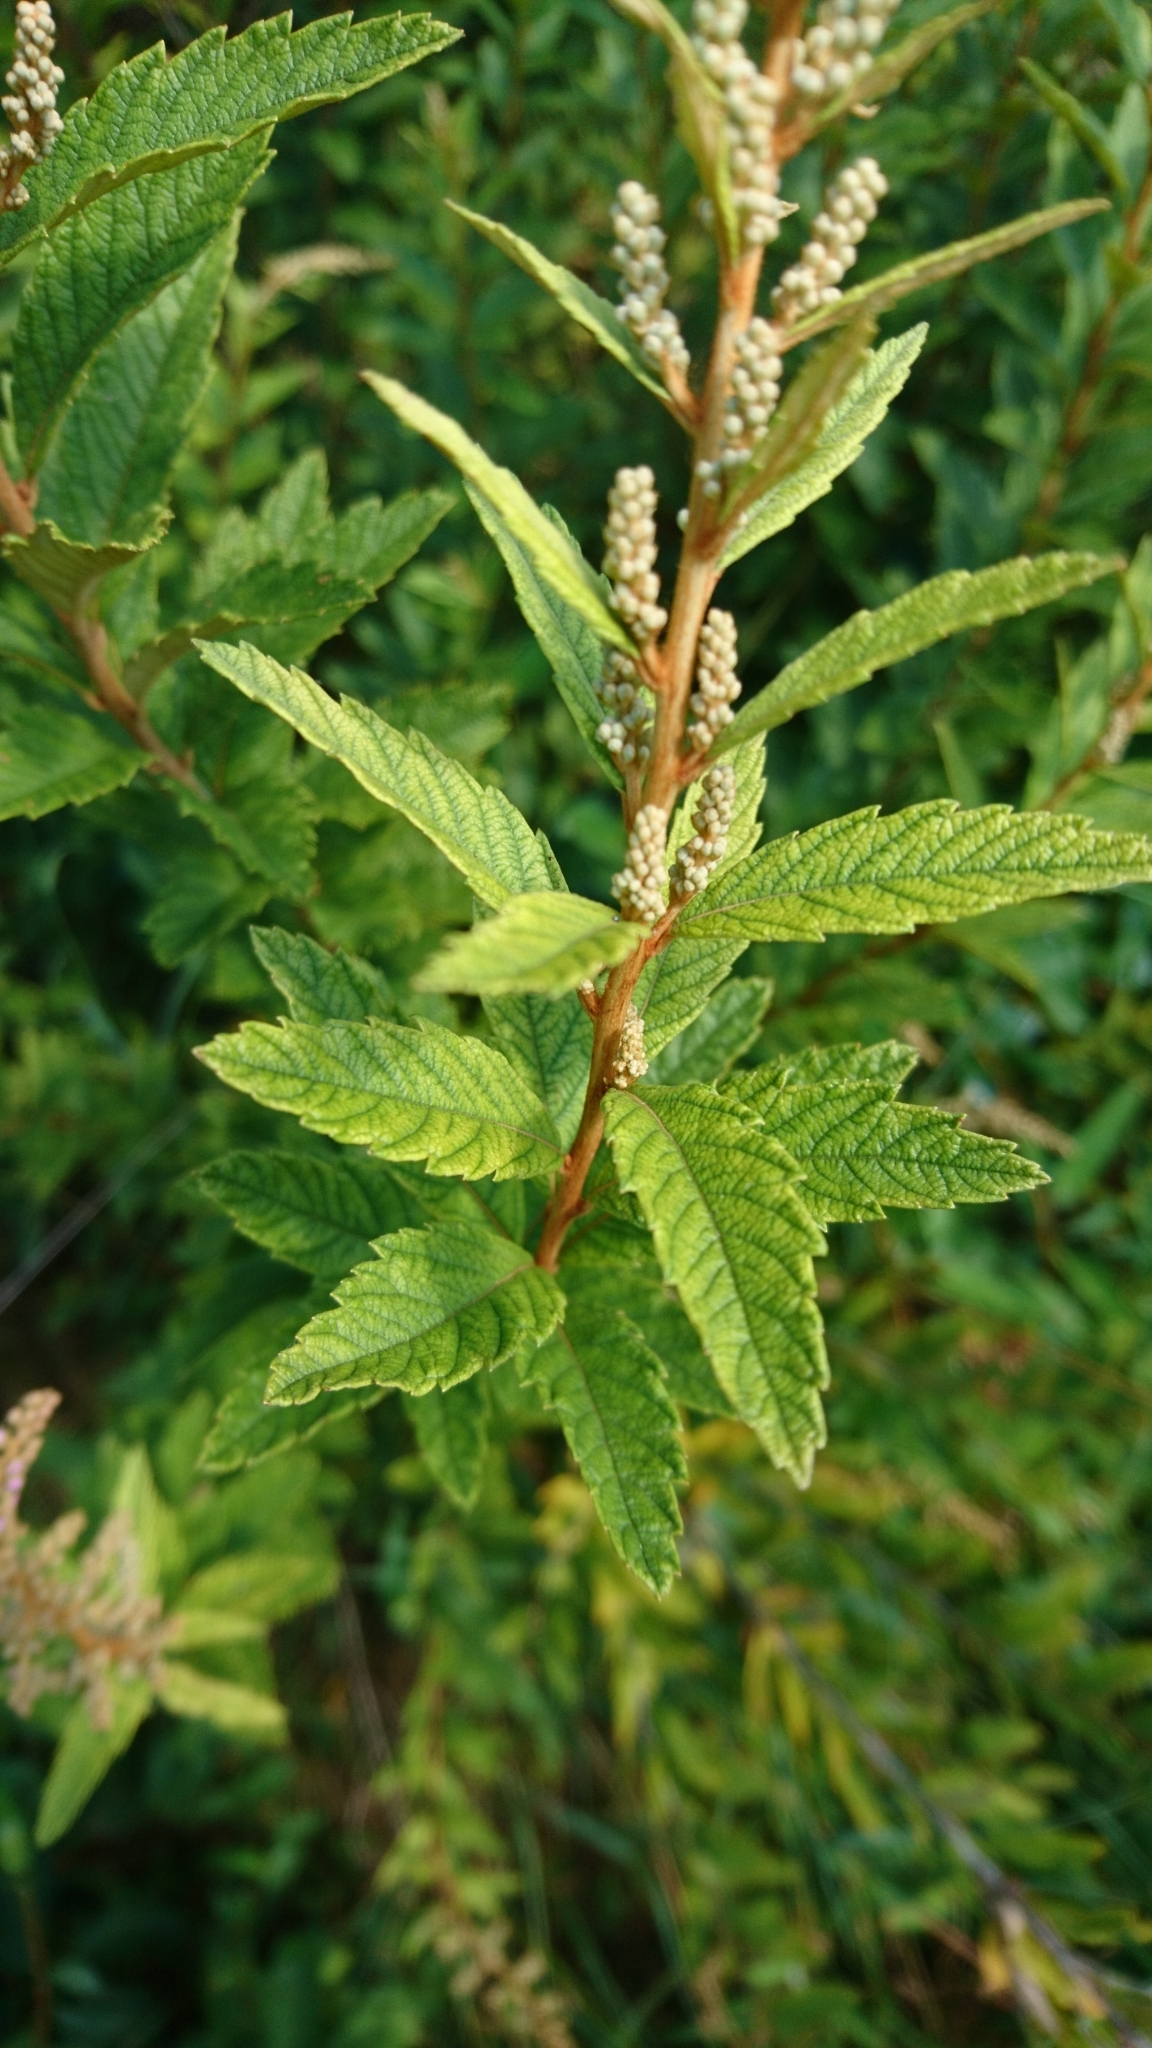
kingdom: Plantae
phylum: Tracheophyta
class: Magnoliopsida
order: Rosales
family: Rosaceae
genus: Spiraea
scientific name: Spiraea tomentosa
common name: Hardhack
